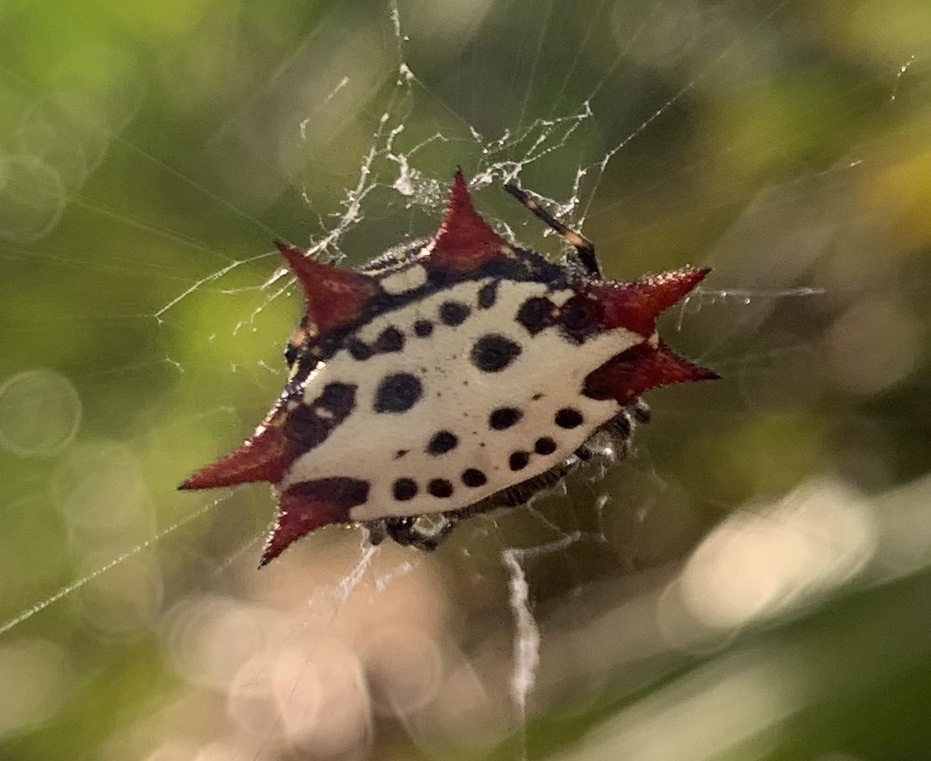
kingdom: Animalia
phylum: Arthropoda
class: Arachnida
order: Araneae
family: Araneidae
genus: Gasteracantha
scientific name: Gasteracantha cancriformis
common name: Orb weavers
